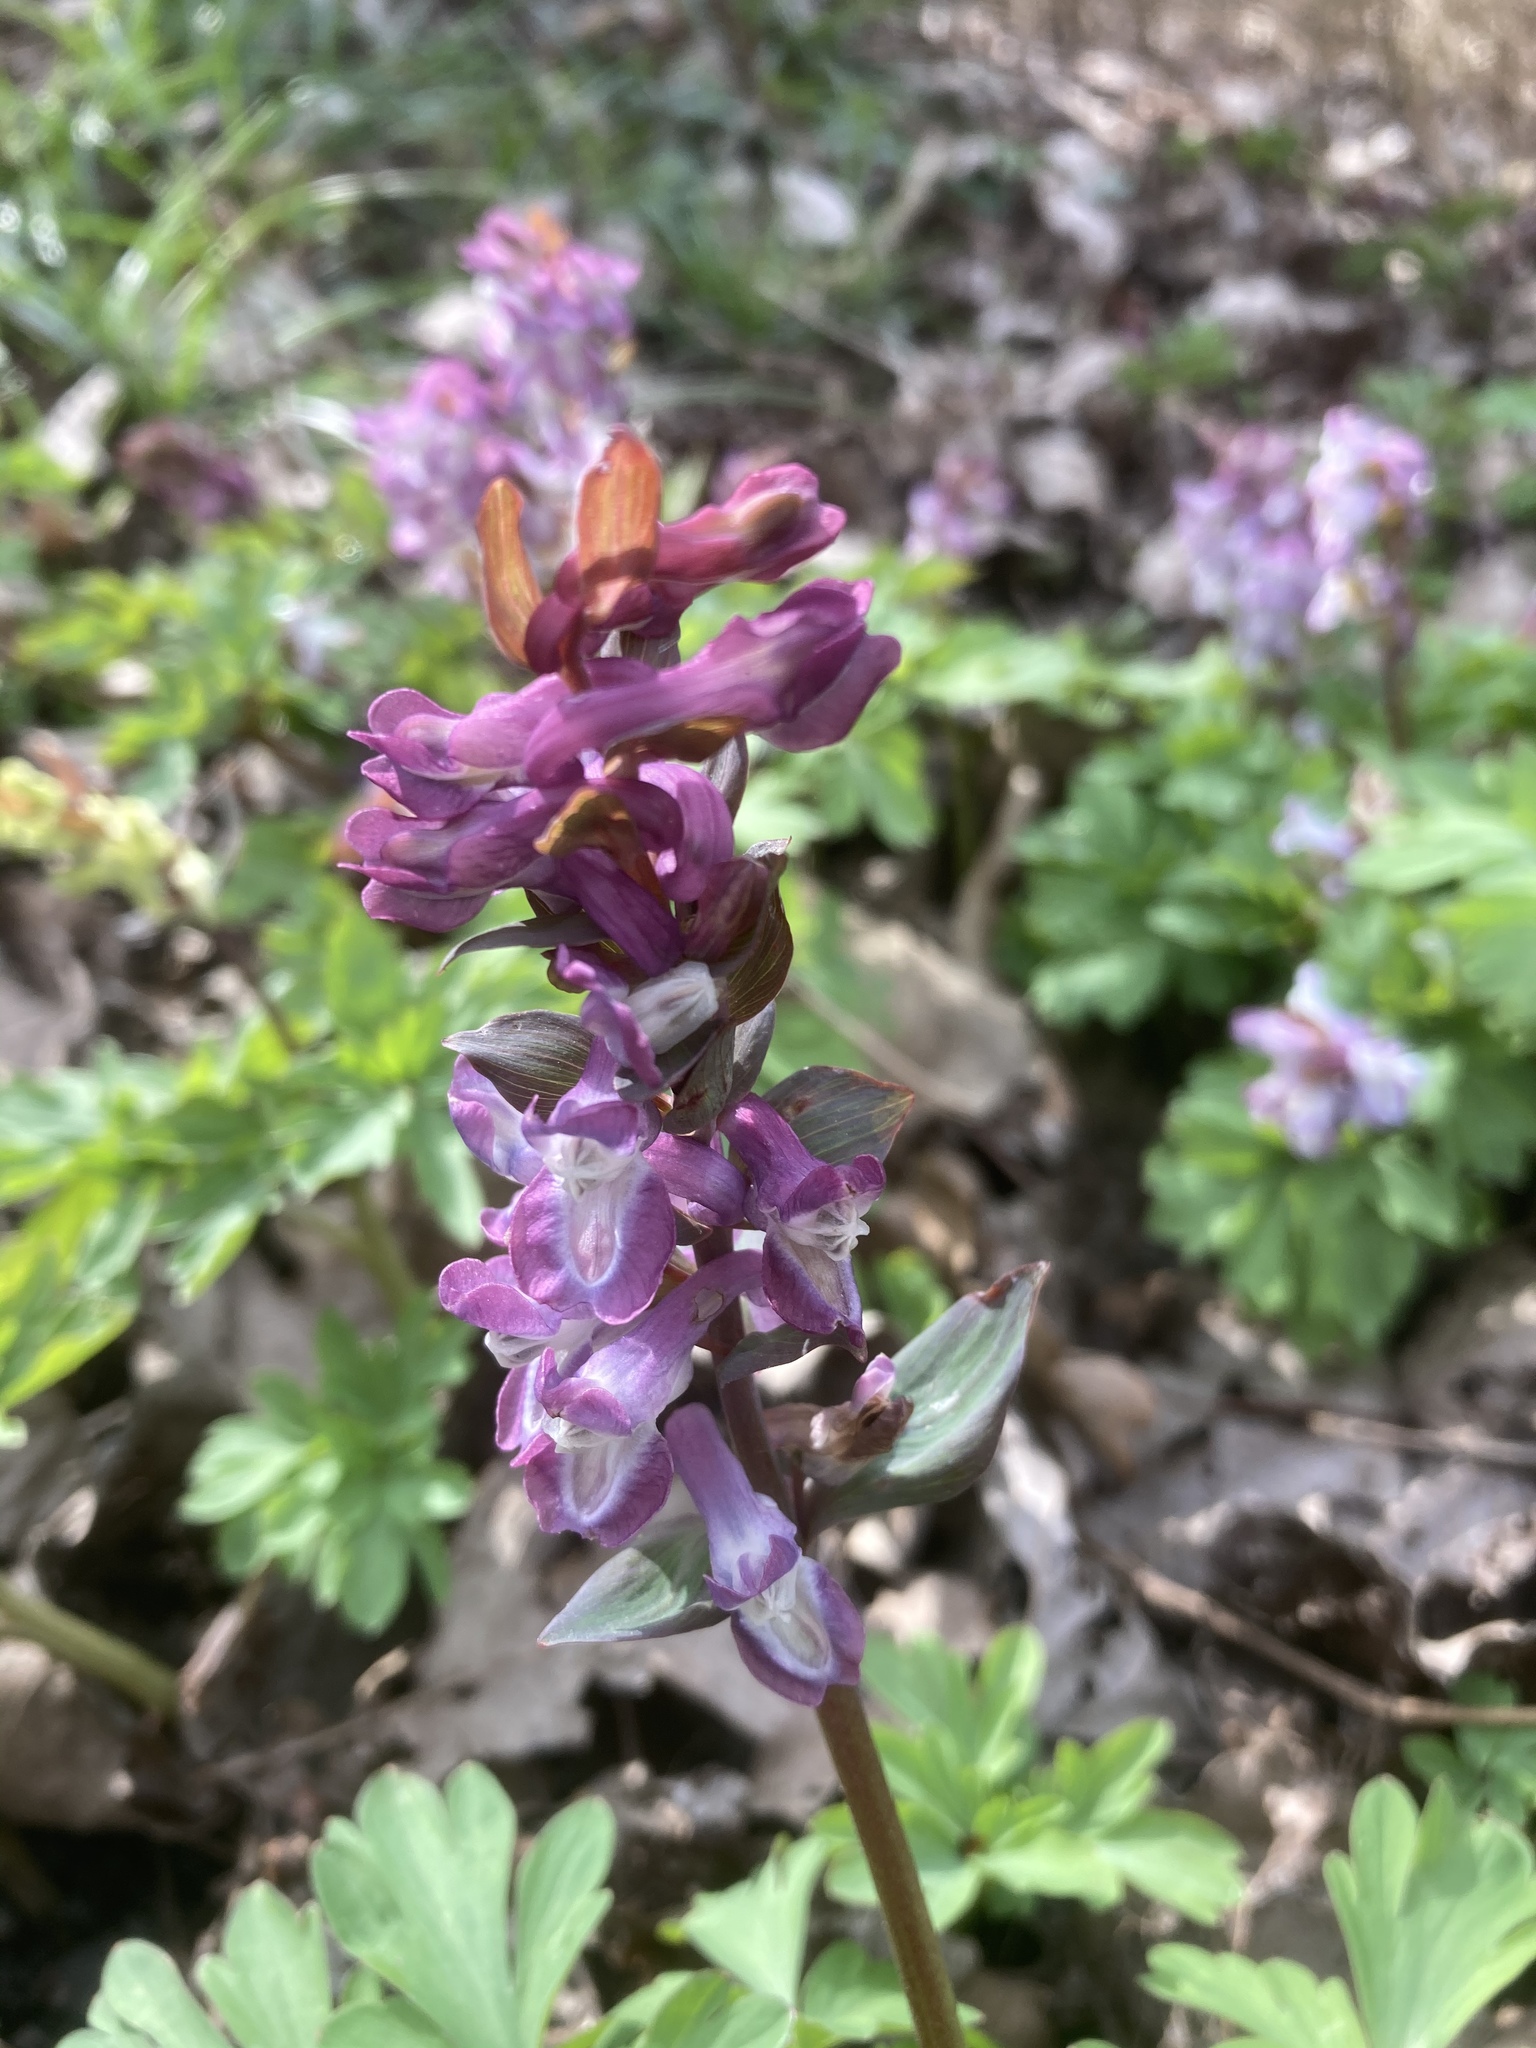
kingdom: Plantae
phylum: Tracheophyta
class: Magnoliopsida
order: Ranunculales
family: Papaveraceae
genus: Corydalis
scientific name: Corydalis cava
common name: Hollowroot
